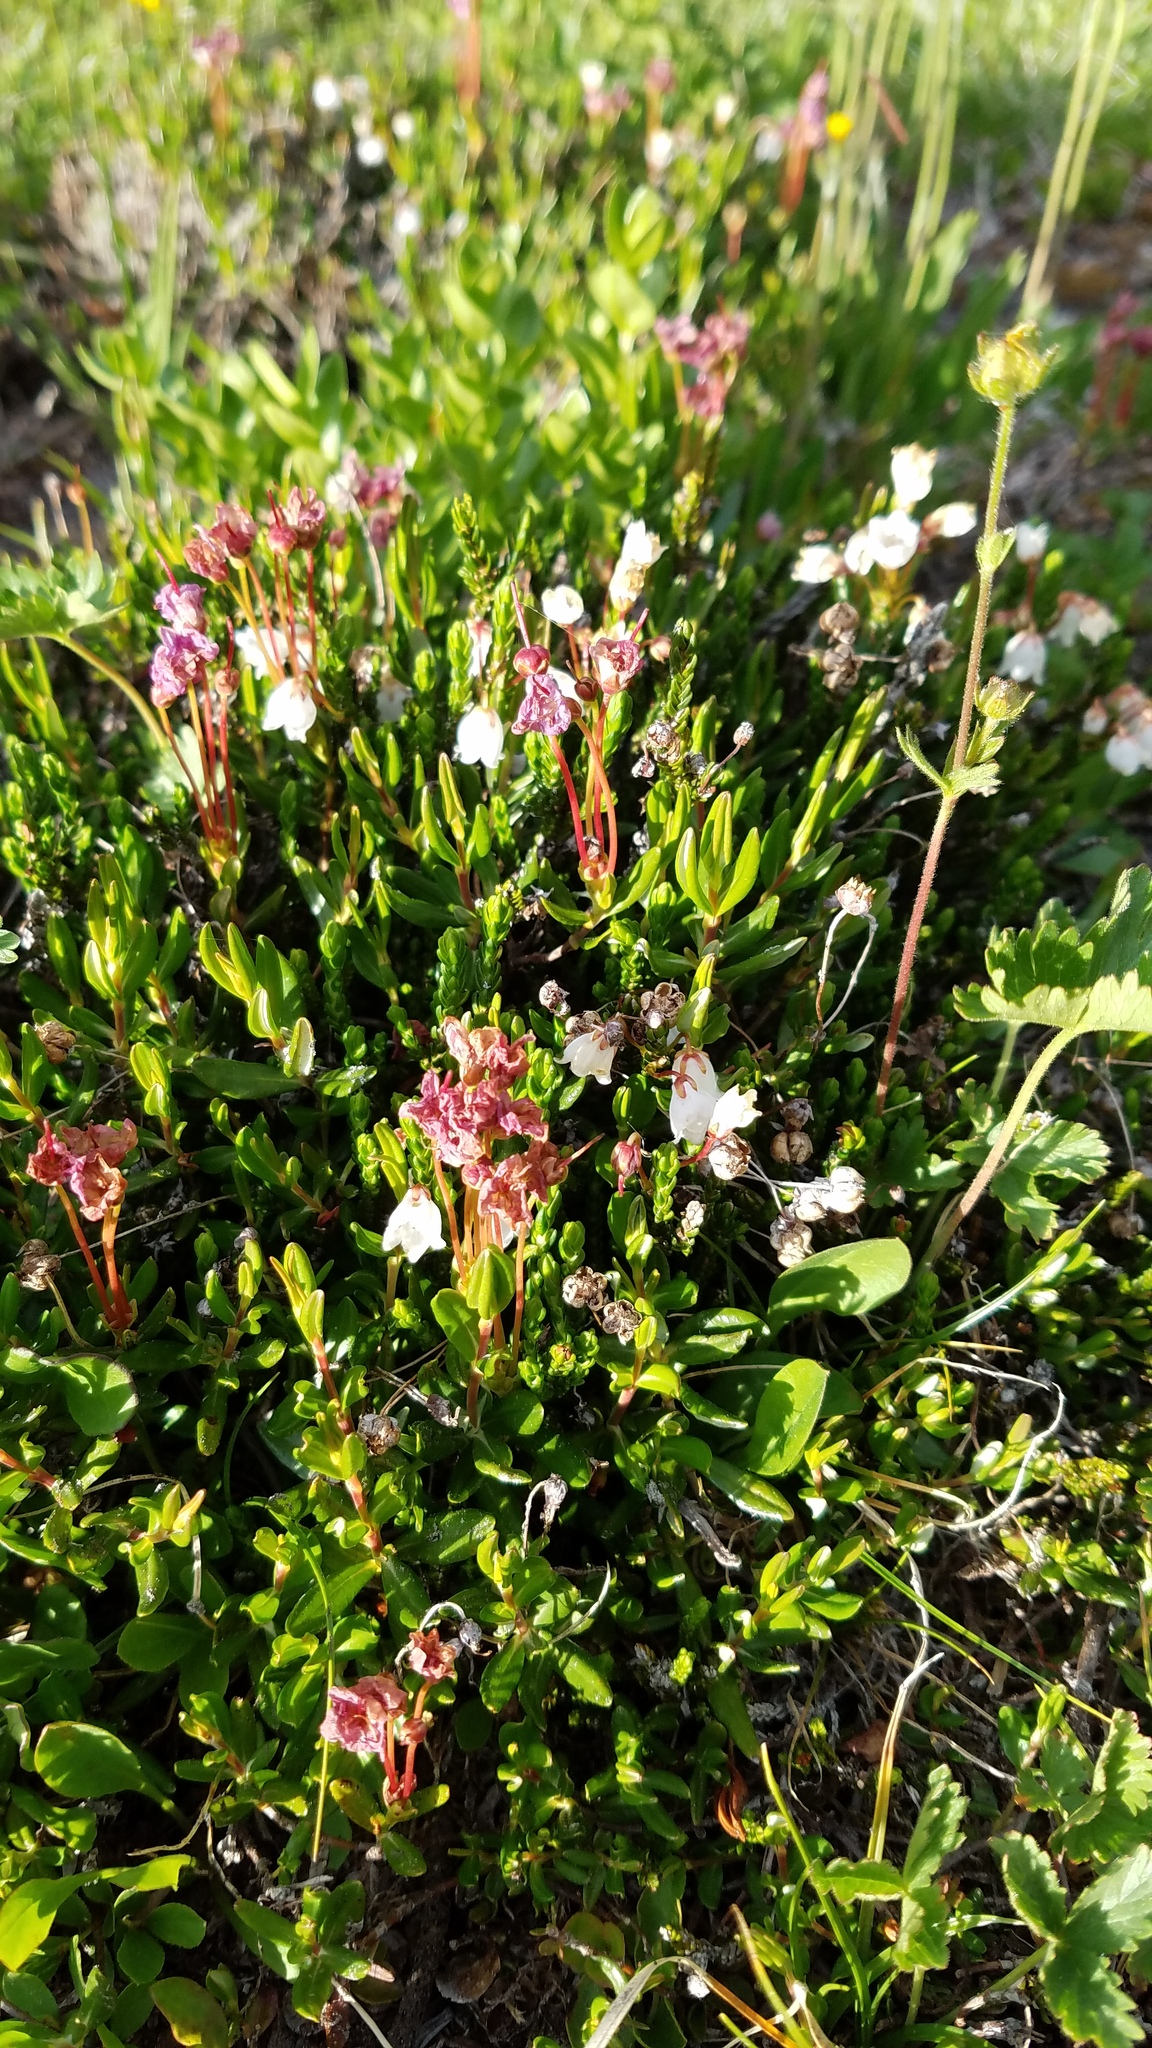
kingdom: Plantae
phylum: Tracheophyta
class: Magnoliopsida
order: Ericales
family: Ericaceae
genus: Cassiope
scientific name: Cassiope mertensiana
